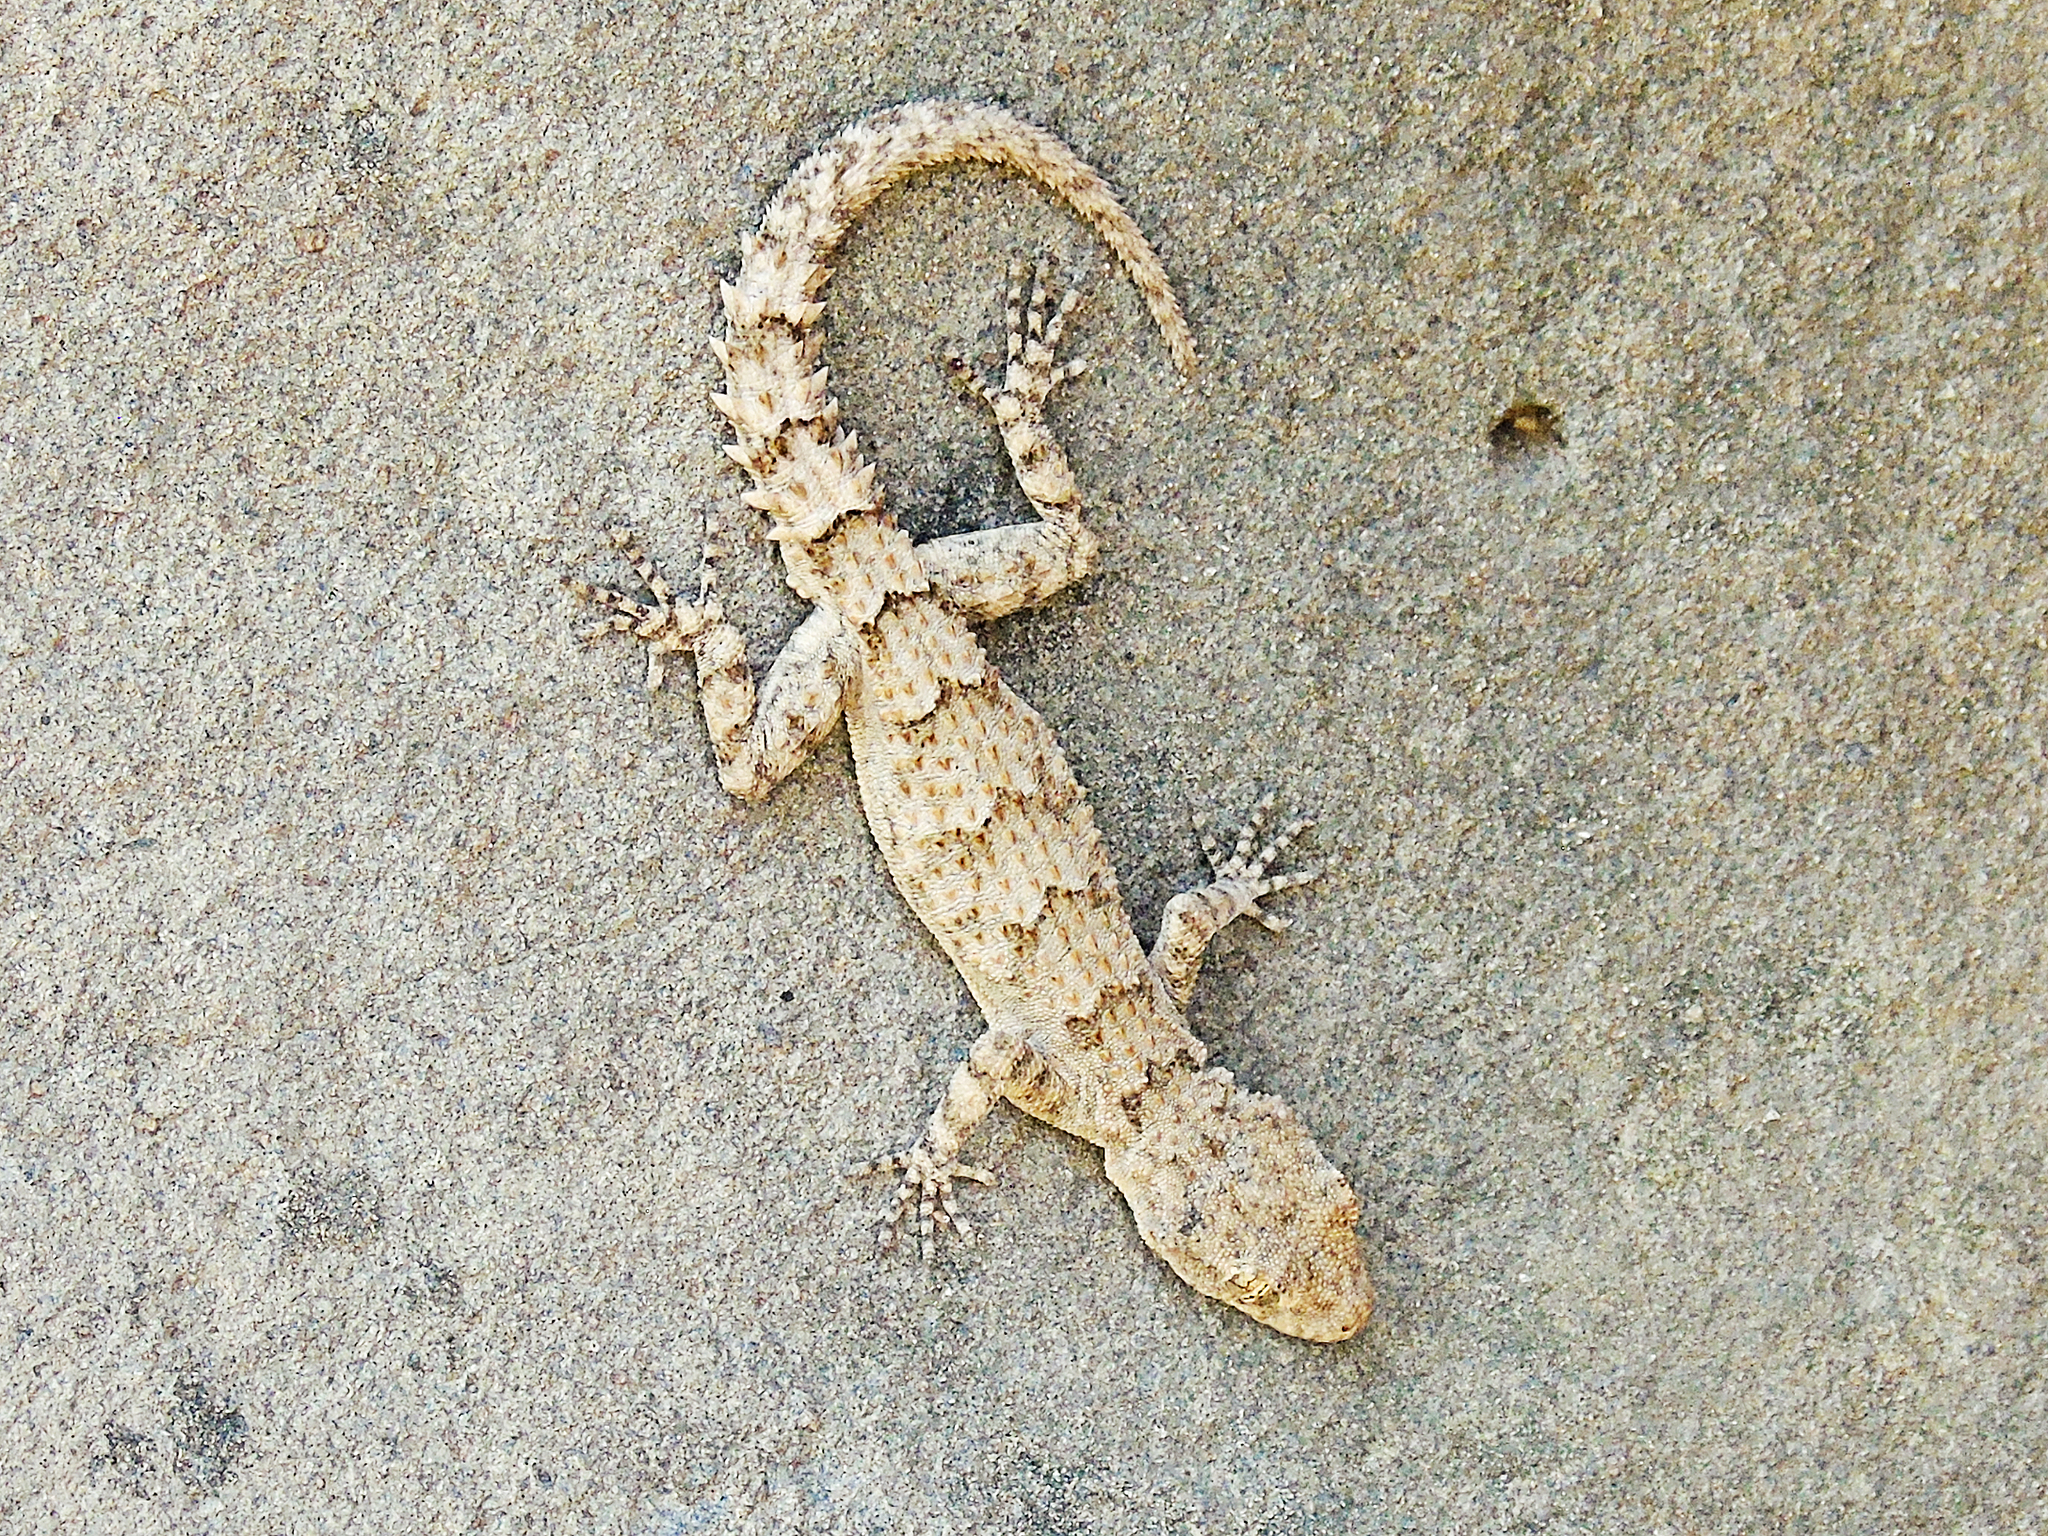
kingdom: Animalia
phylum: Chordata
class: Squamata
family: Gekkonidae
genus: Mediodactylus
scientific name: Mediodactylus heterocercus
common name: Asia minor thin-toed gecko
